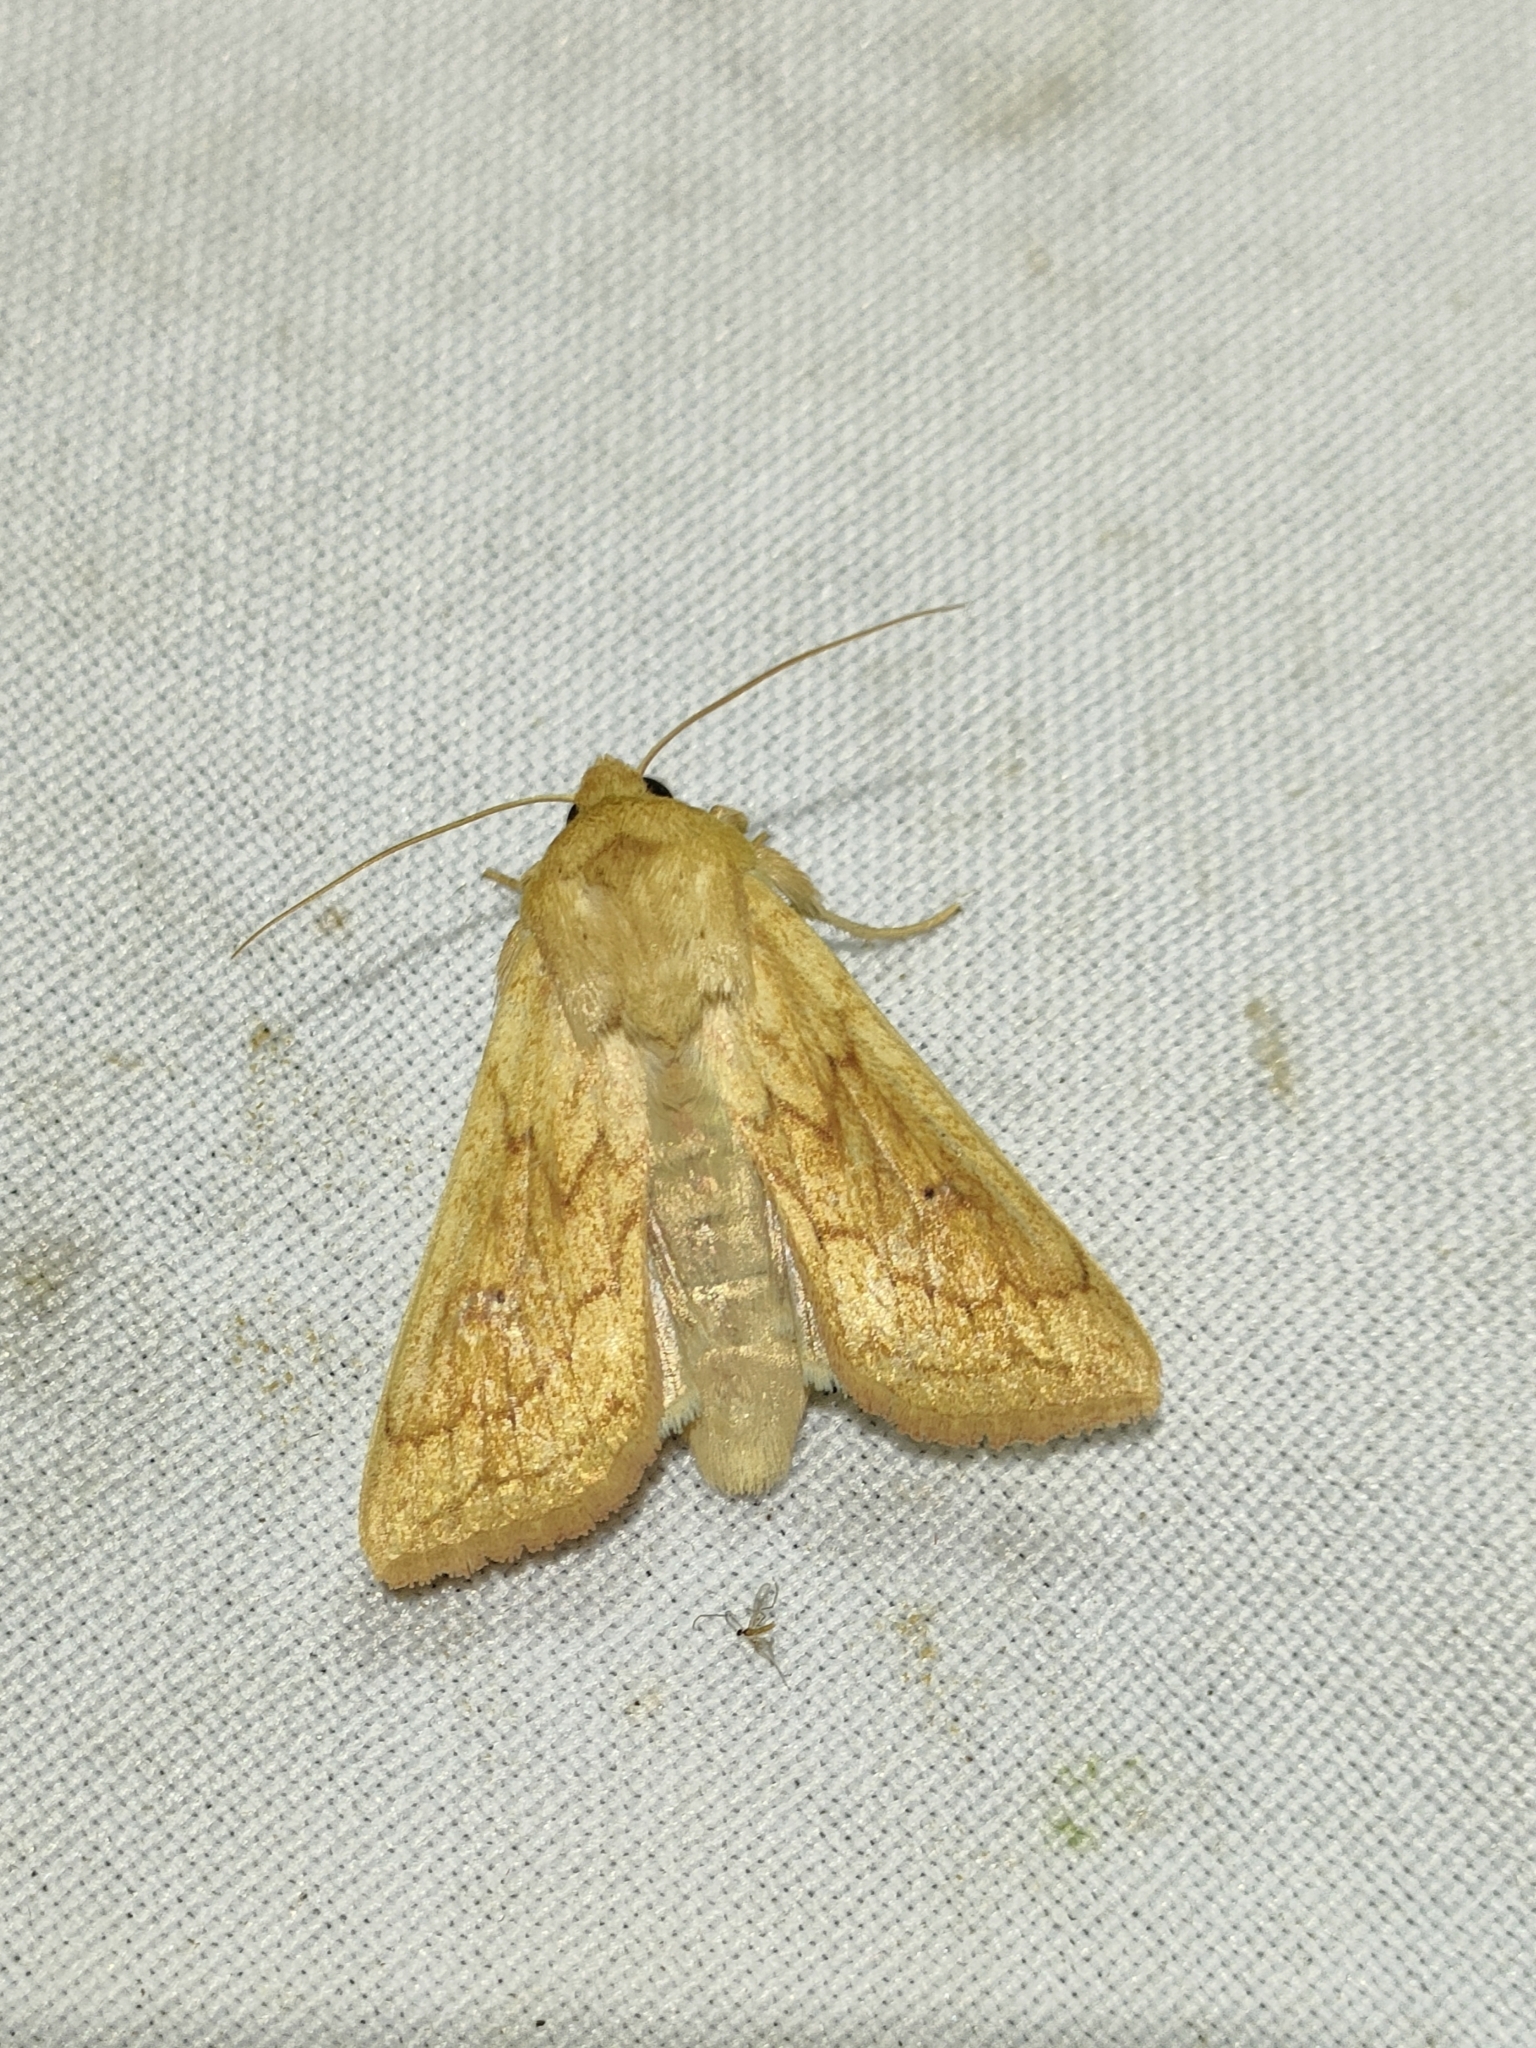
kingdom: Animalia
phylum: Arthropoda
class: Insecta
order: Lepidoptera
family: Noctuidae
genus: Mythimna
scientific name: Mythimna vitellina
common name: Delicate
